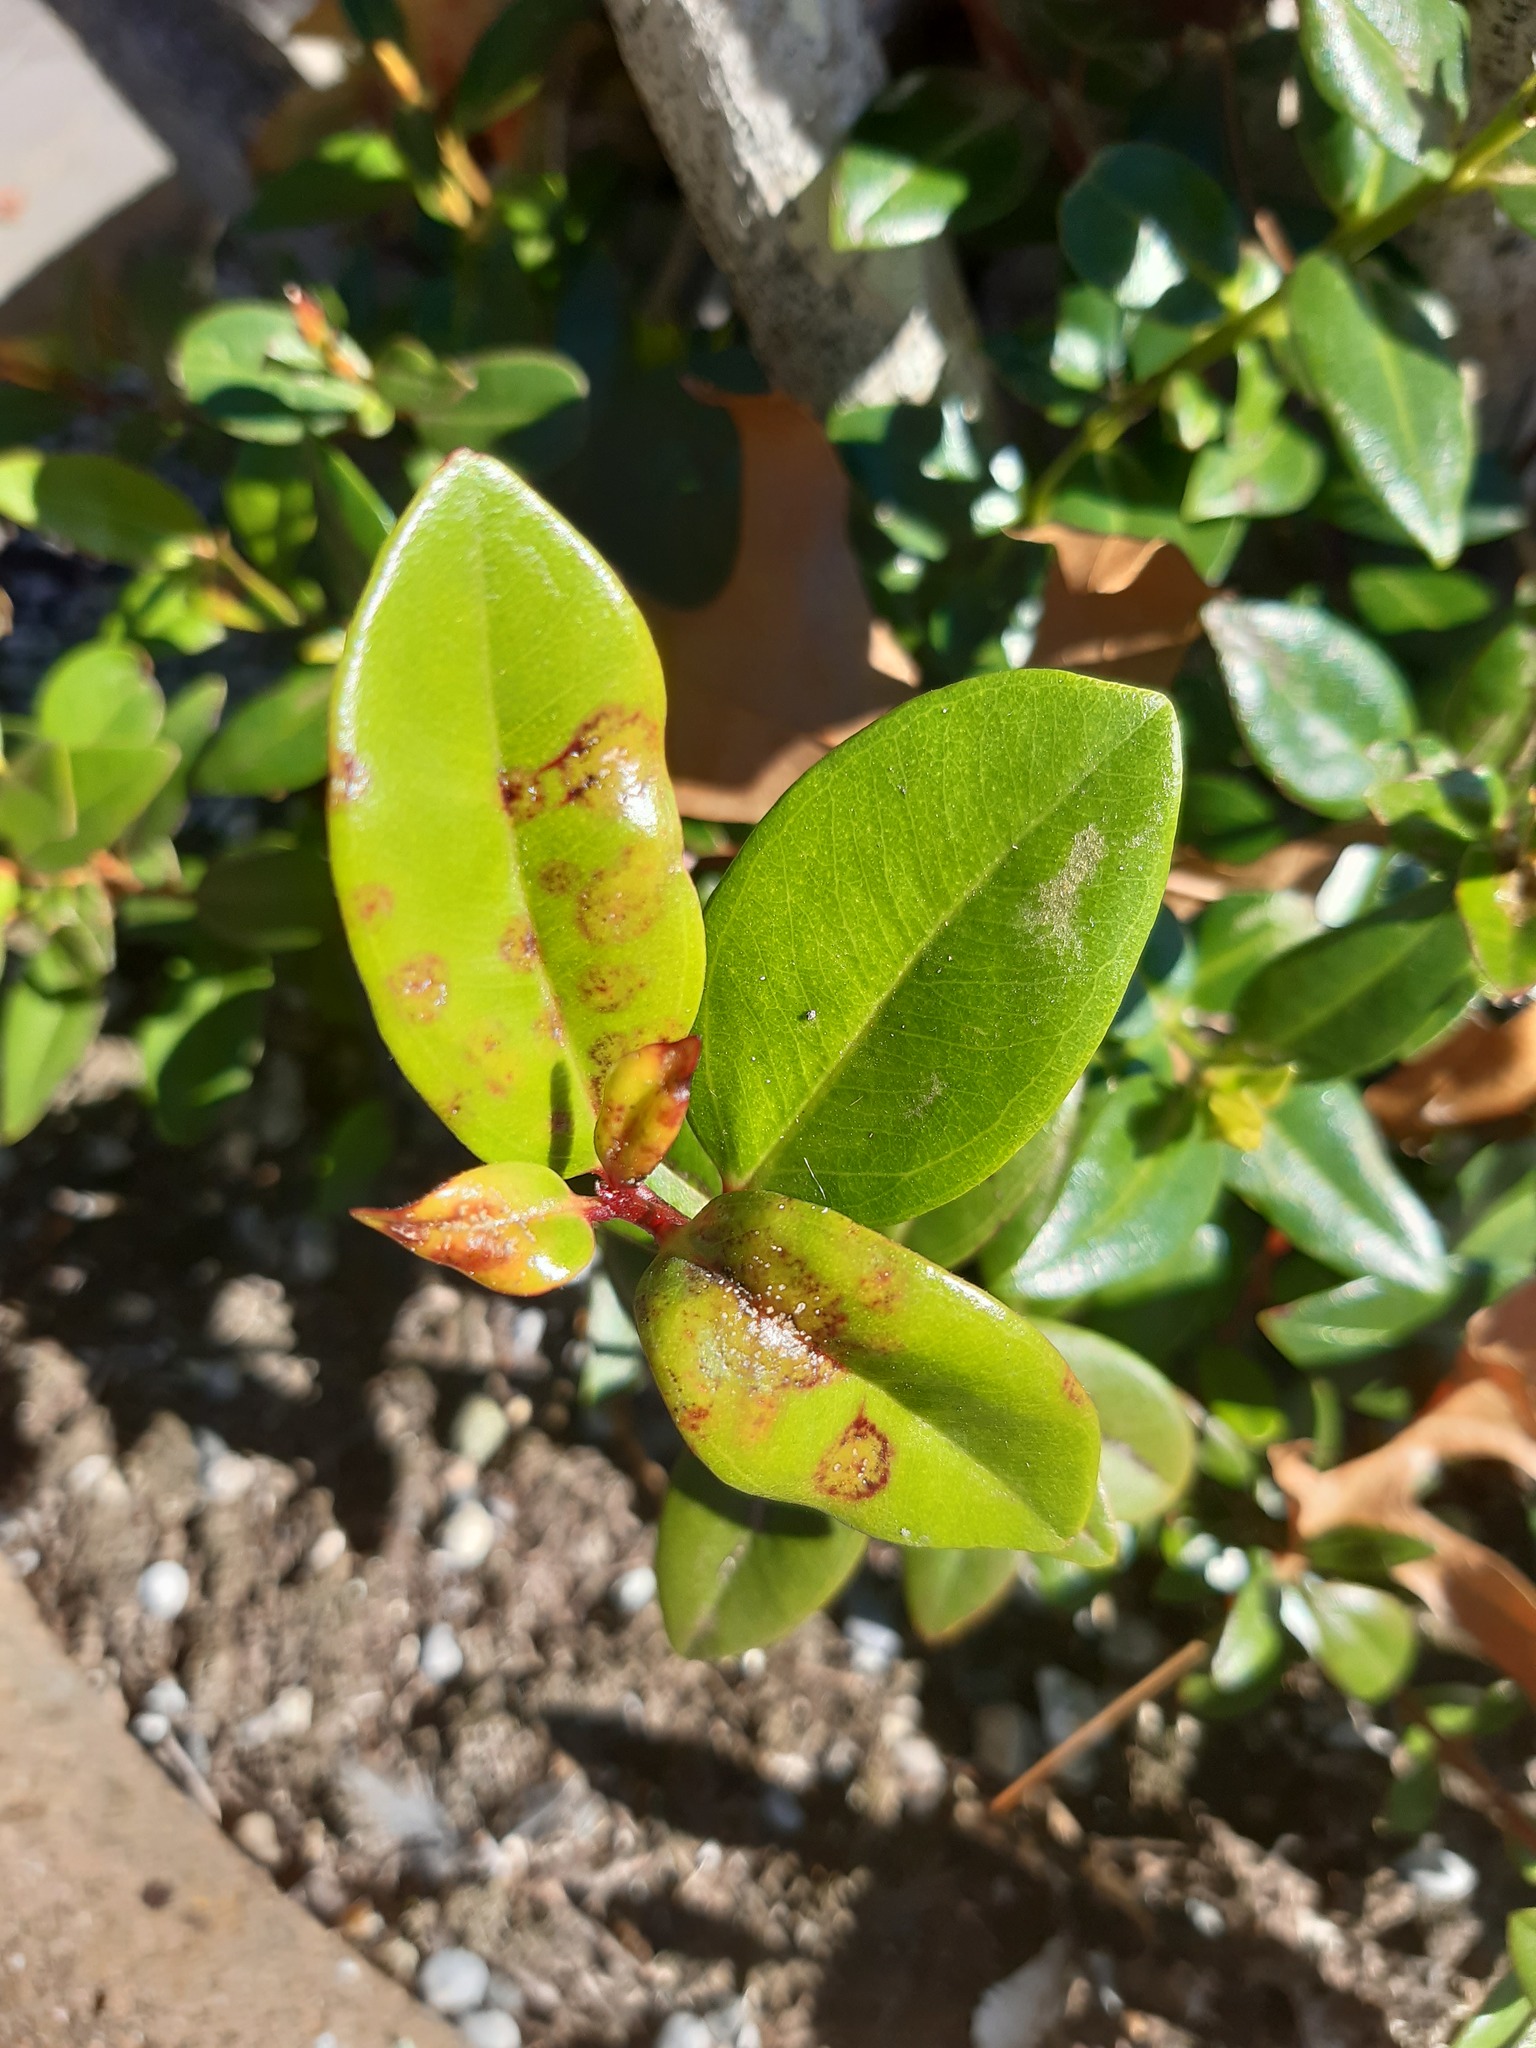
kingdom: Fungi
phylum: Basidiomycota
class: Pucciniomycetes
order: Pucciniales
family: Sphaerophragmiaceae
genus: Austropuccinia
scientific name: Austropuccinia psidii
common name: Myrtle rust
